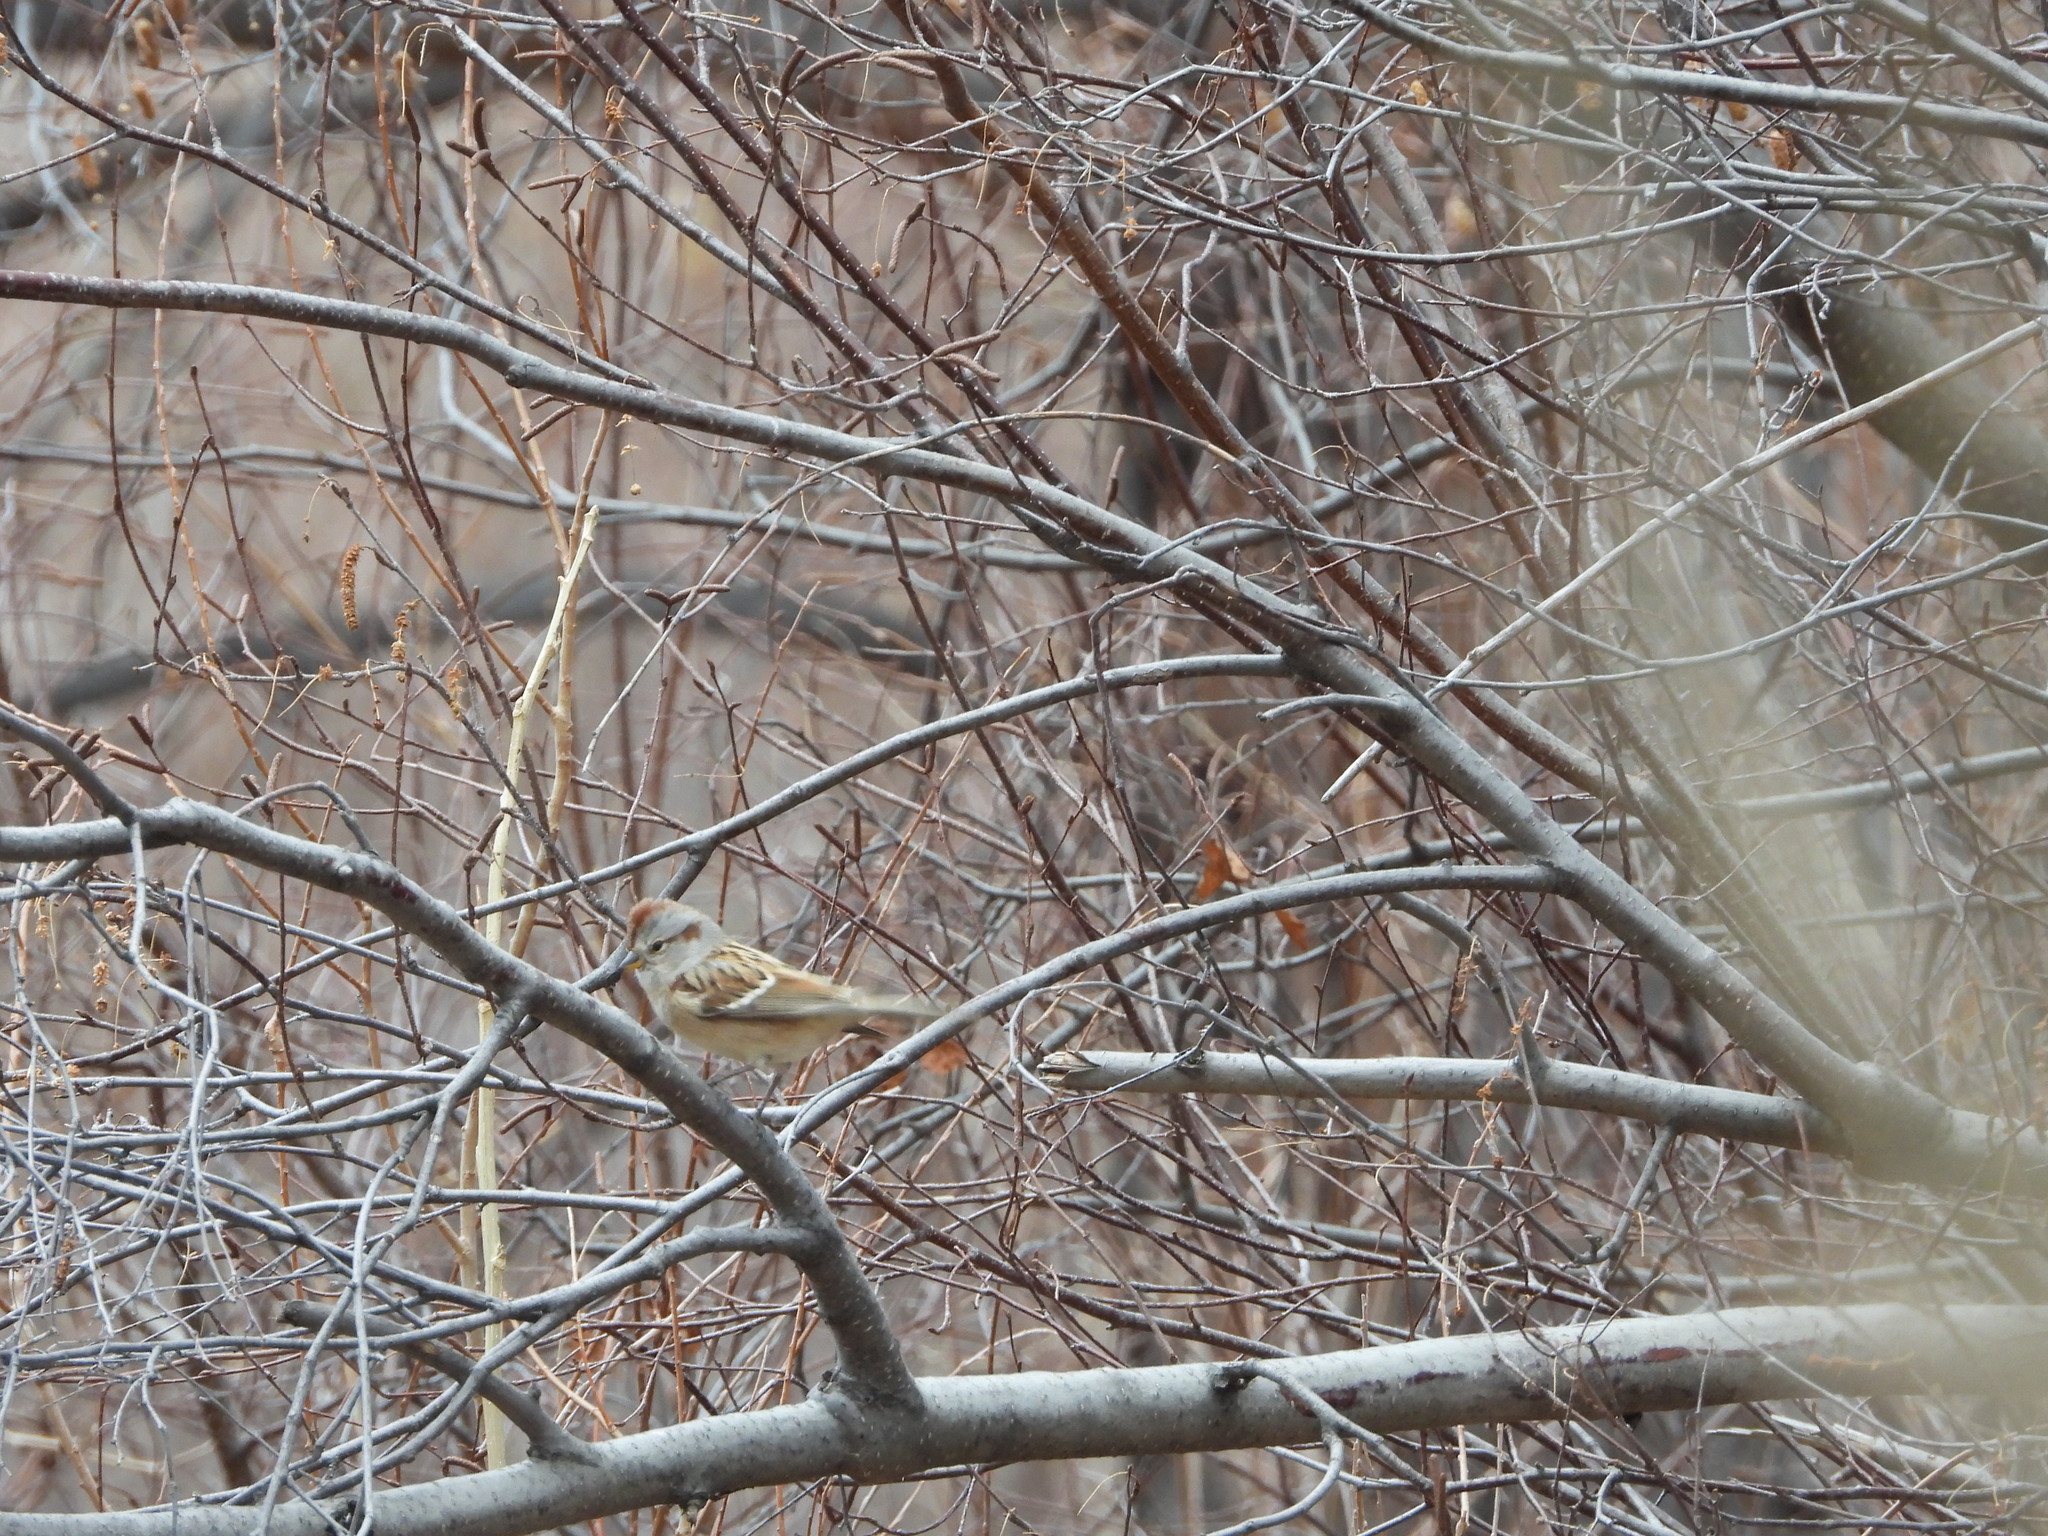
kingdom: Animalia
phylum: Chordata
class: Aves
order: Passeriformes
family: Passerellidae
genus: Spizelloides
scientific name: Spizelloides arborea
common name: American tree sparrow
